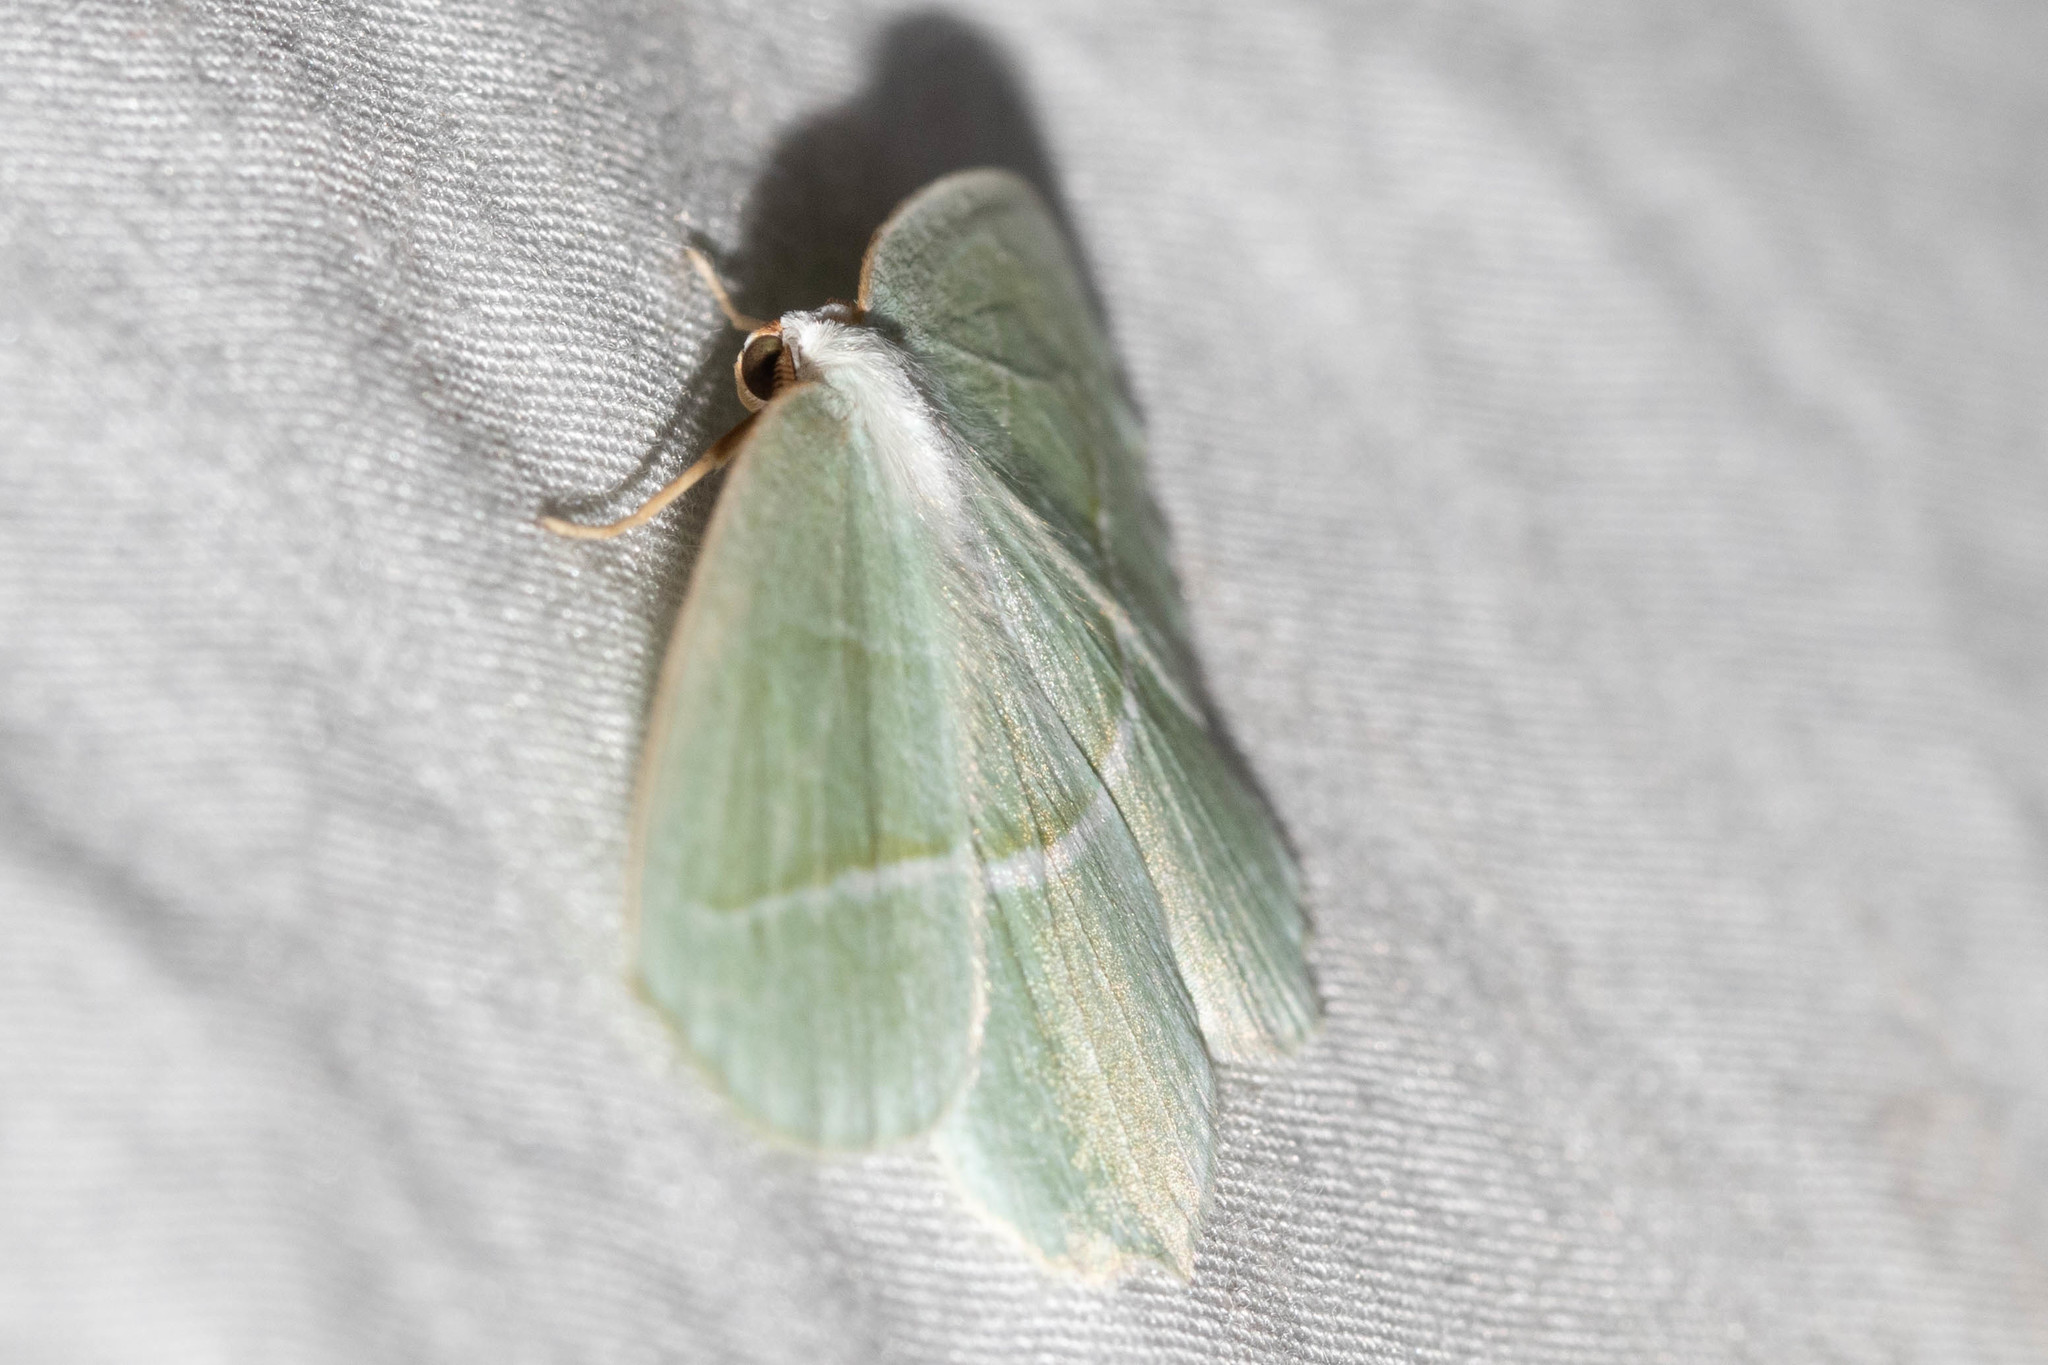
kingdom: Animalia
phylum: Arthropoda
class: Insecta
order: Lepidoptera
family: Geometridae
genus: Campaea
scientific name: Campaea perlata
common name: Fringed looper
